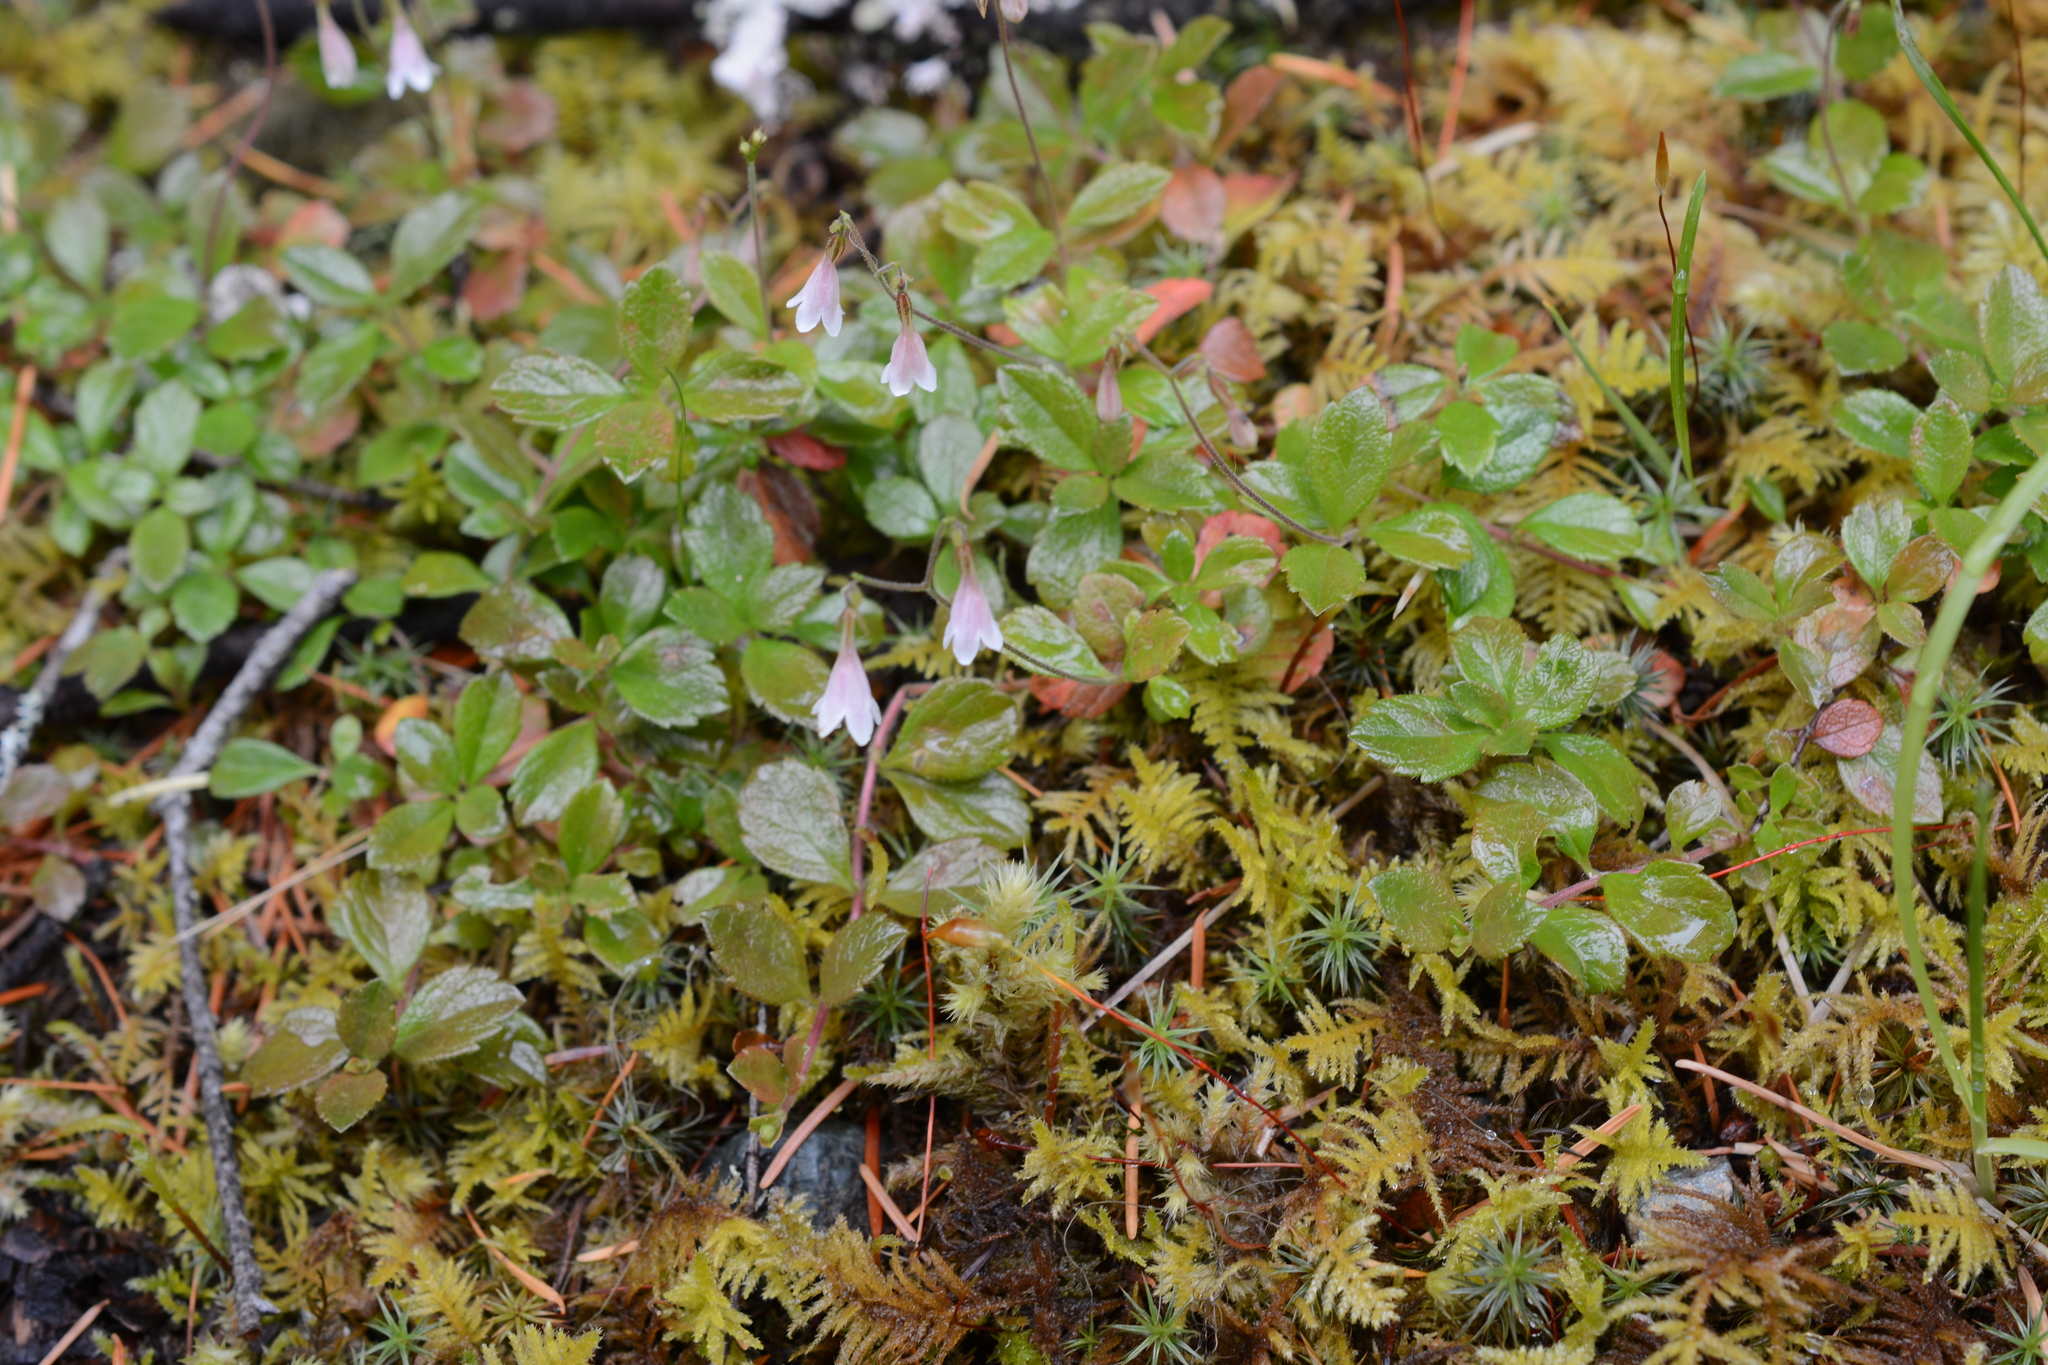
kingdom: Plantae
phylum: Tracheophyta
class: Magnoliopsida
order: Dipsacales
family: Caprifoliaceae
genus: Linnaea
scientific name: Linnaea borealis
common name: Twinflower
